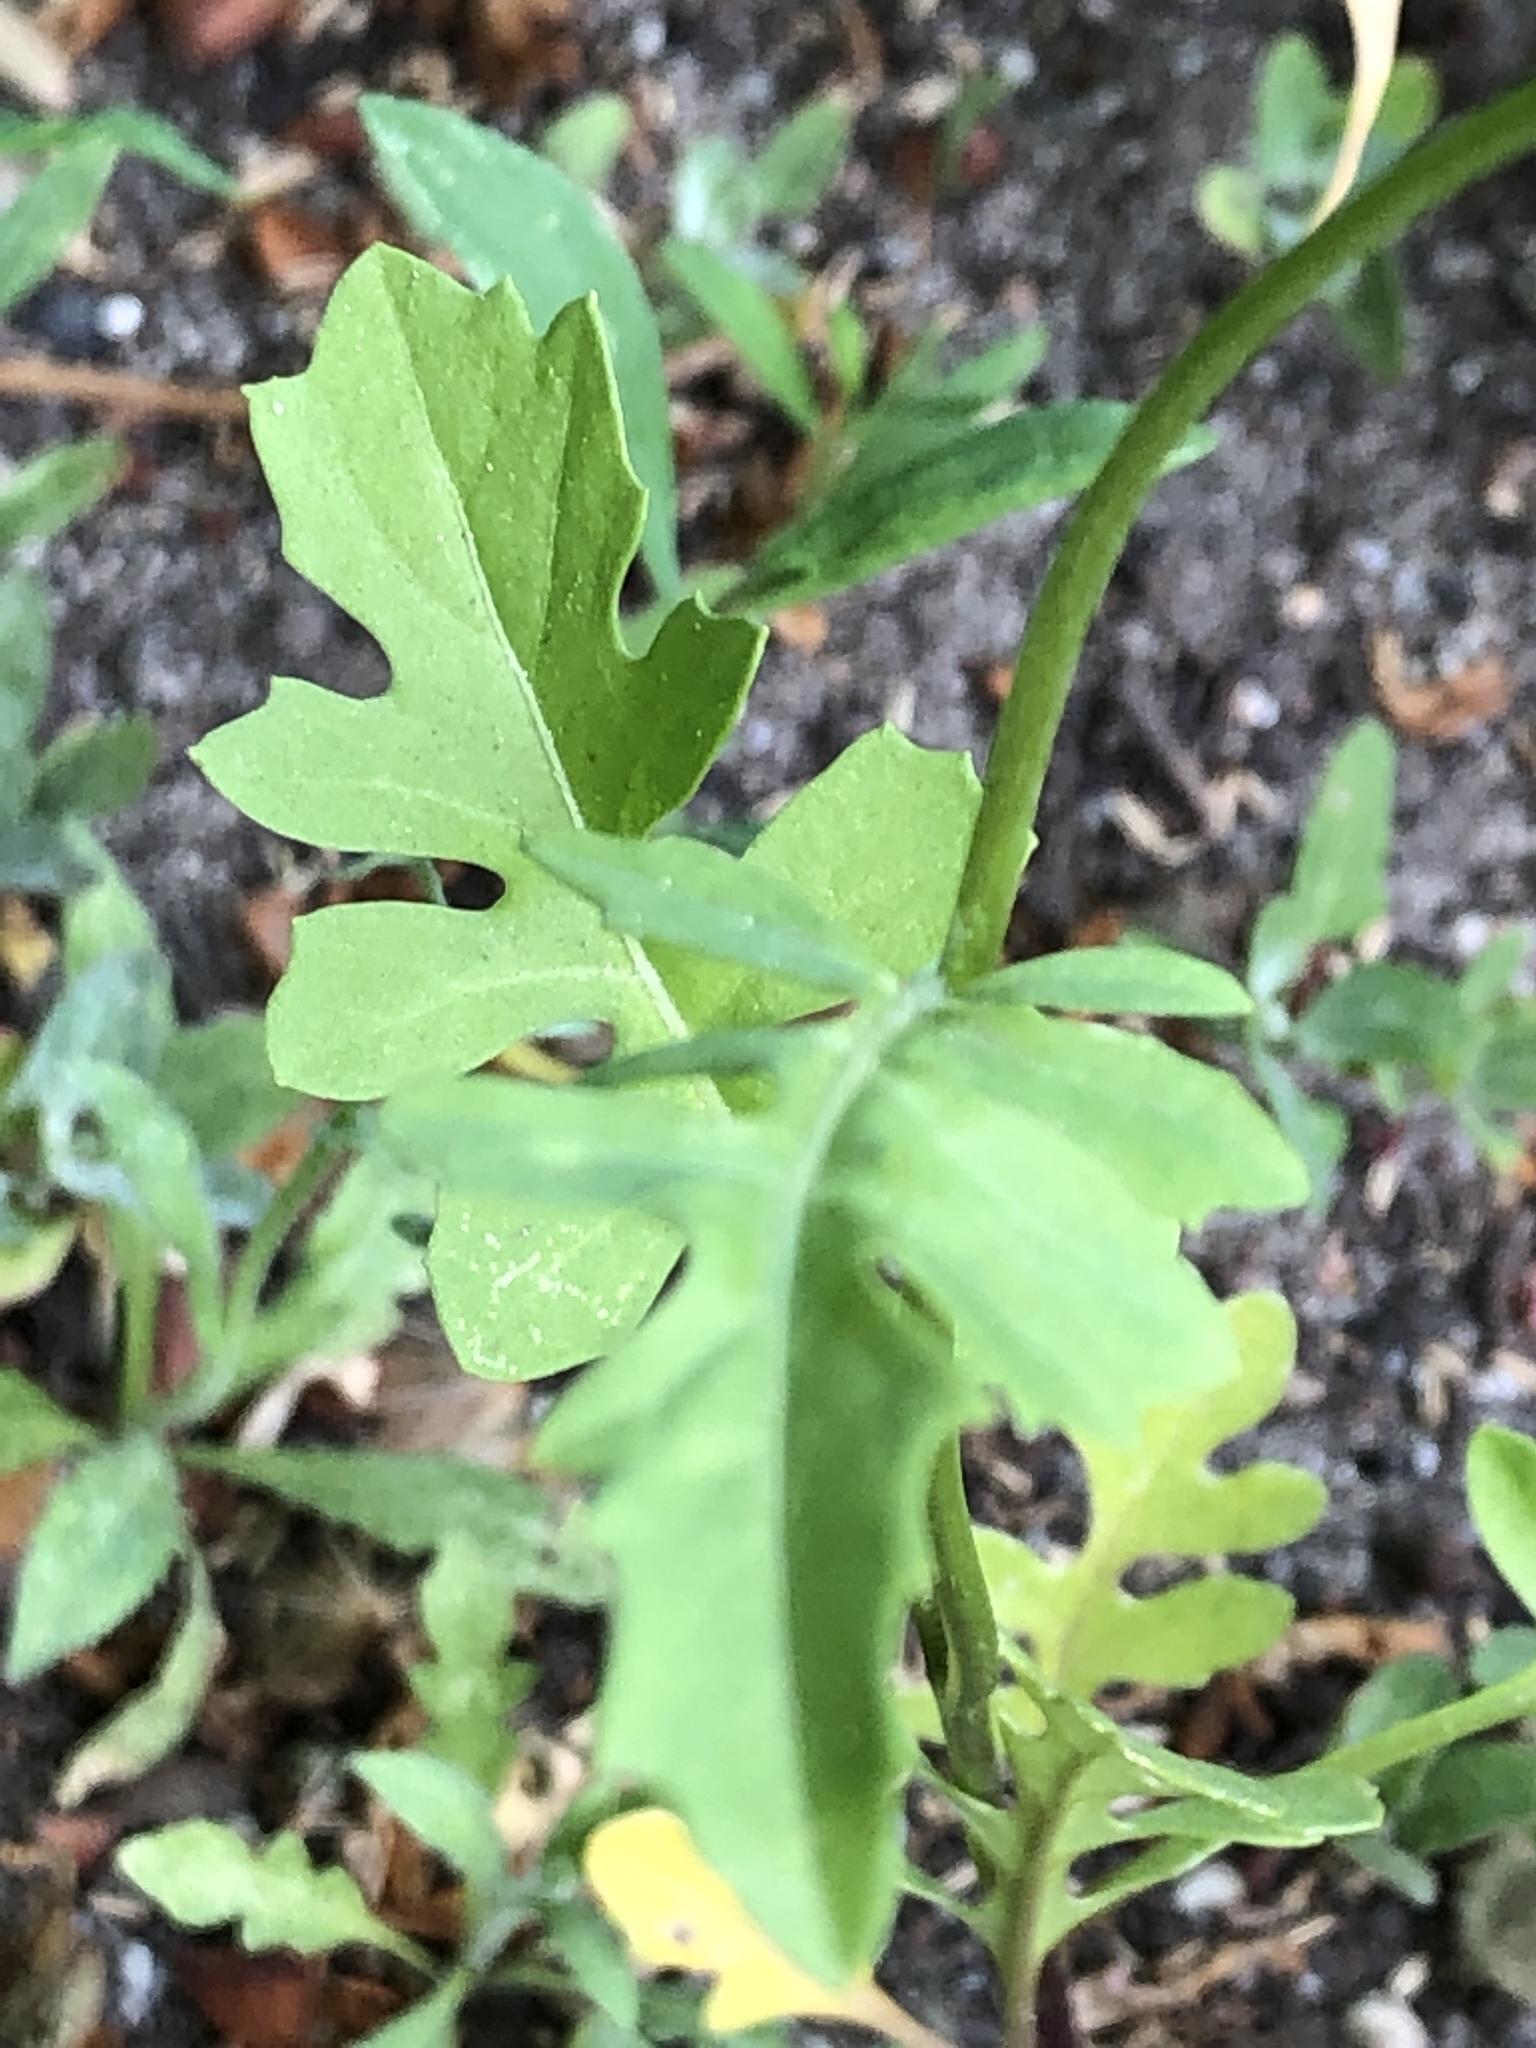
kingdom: Plantae
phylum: Tracheophyta
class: Magnoliopsida
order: Brassicales
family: Brassicaceae
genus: Sisymbrium
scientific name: Sisymbrium officinale
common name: Hedge mustard
